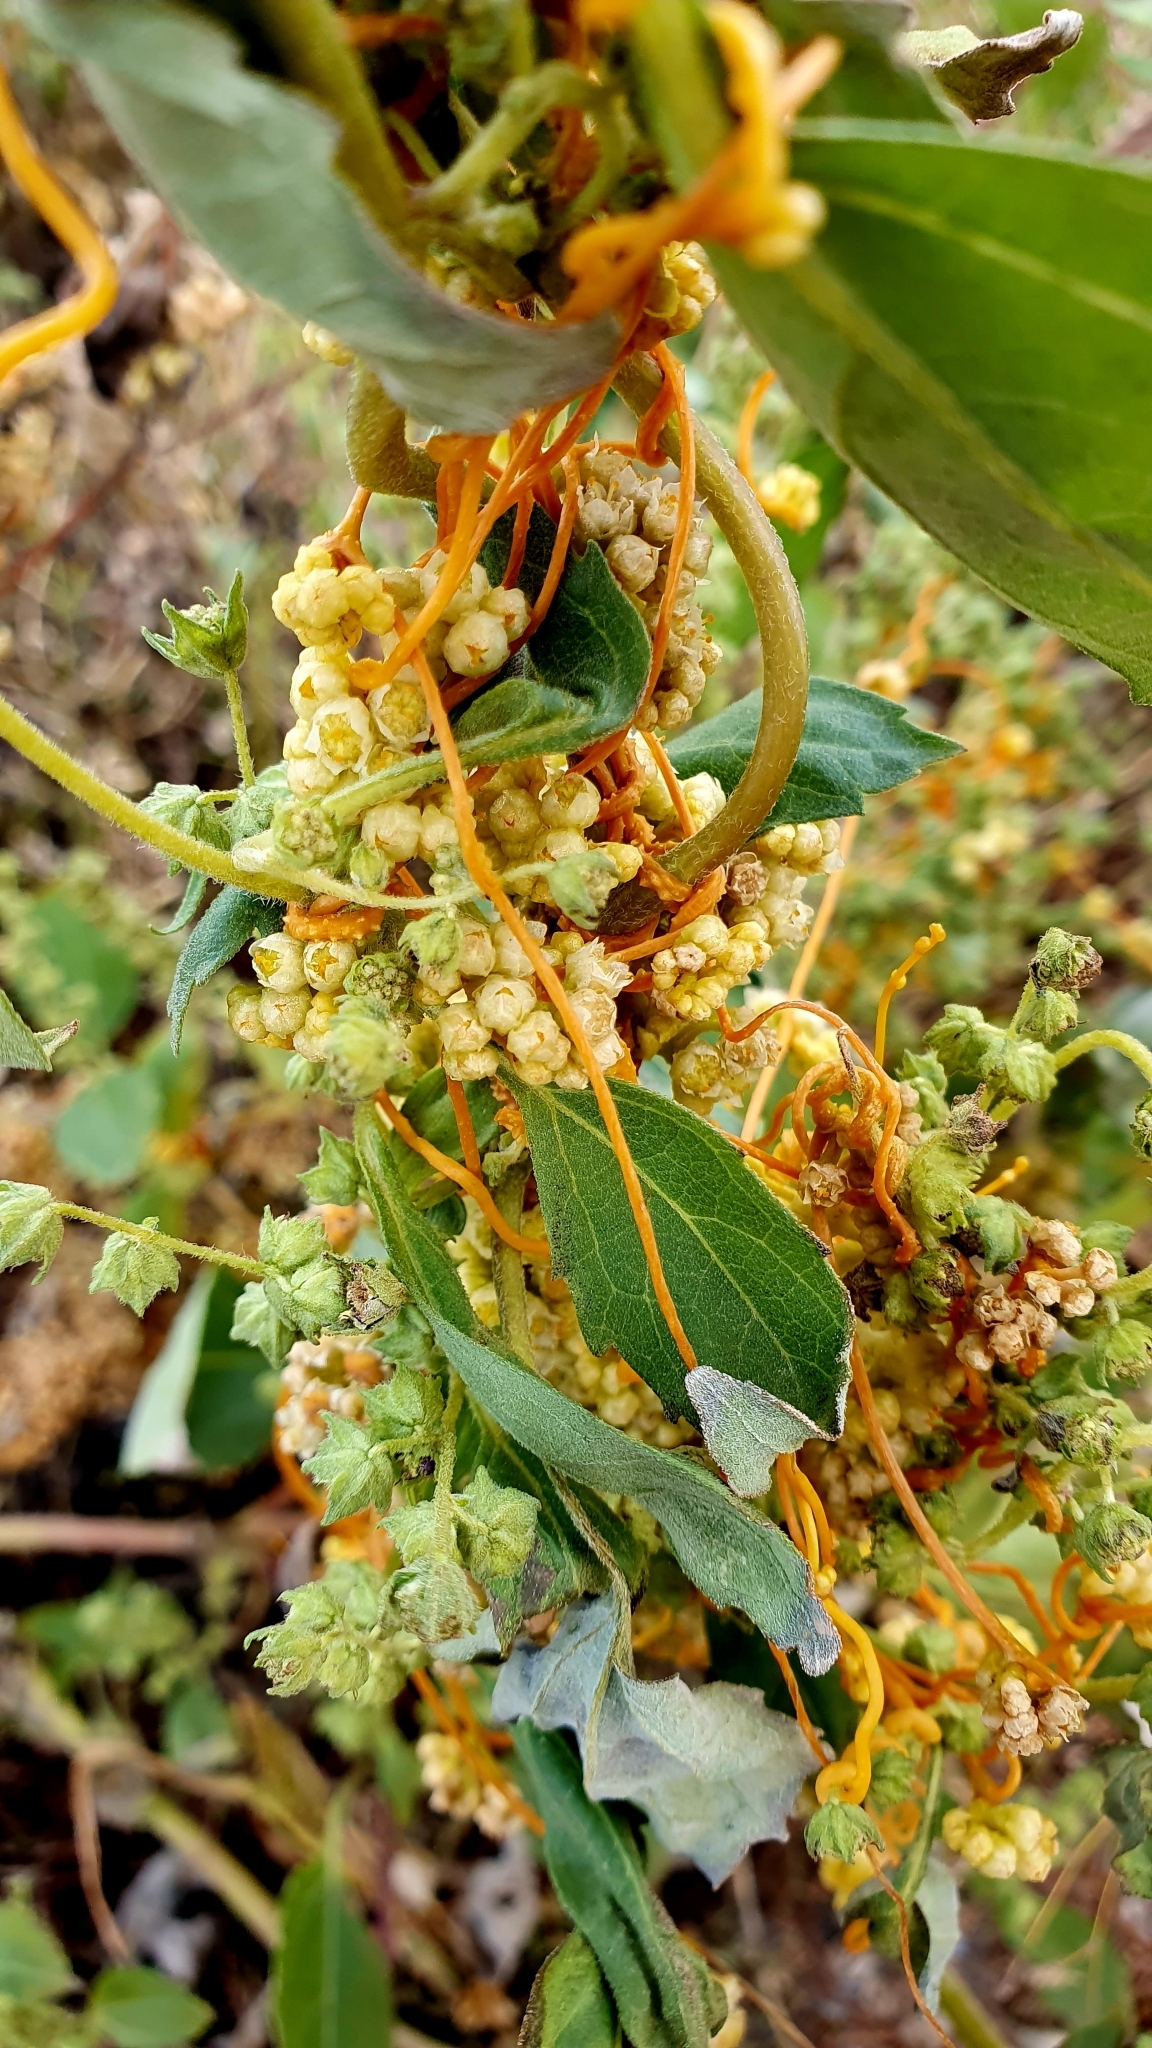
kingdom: Plantae
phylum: Tracheophyta
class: Magnoliopsida
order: Solanales
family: Convolvulaceae
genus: Cuscuta
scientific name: Cuscuta campestris
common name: Yellow dodder
